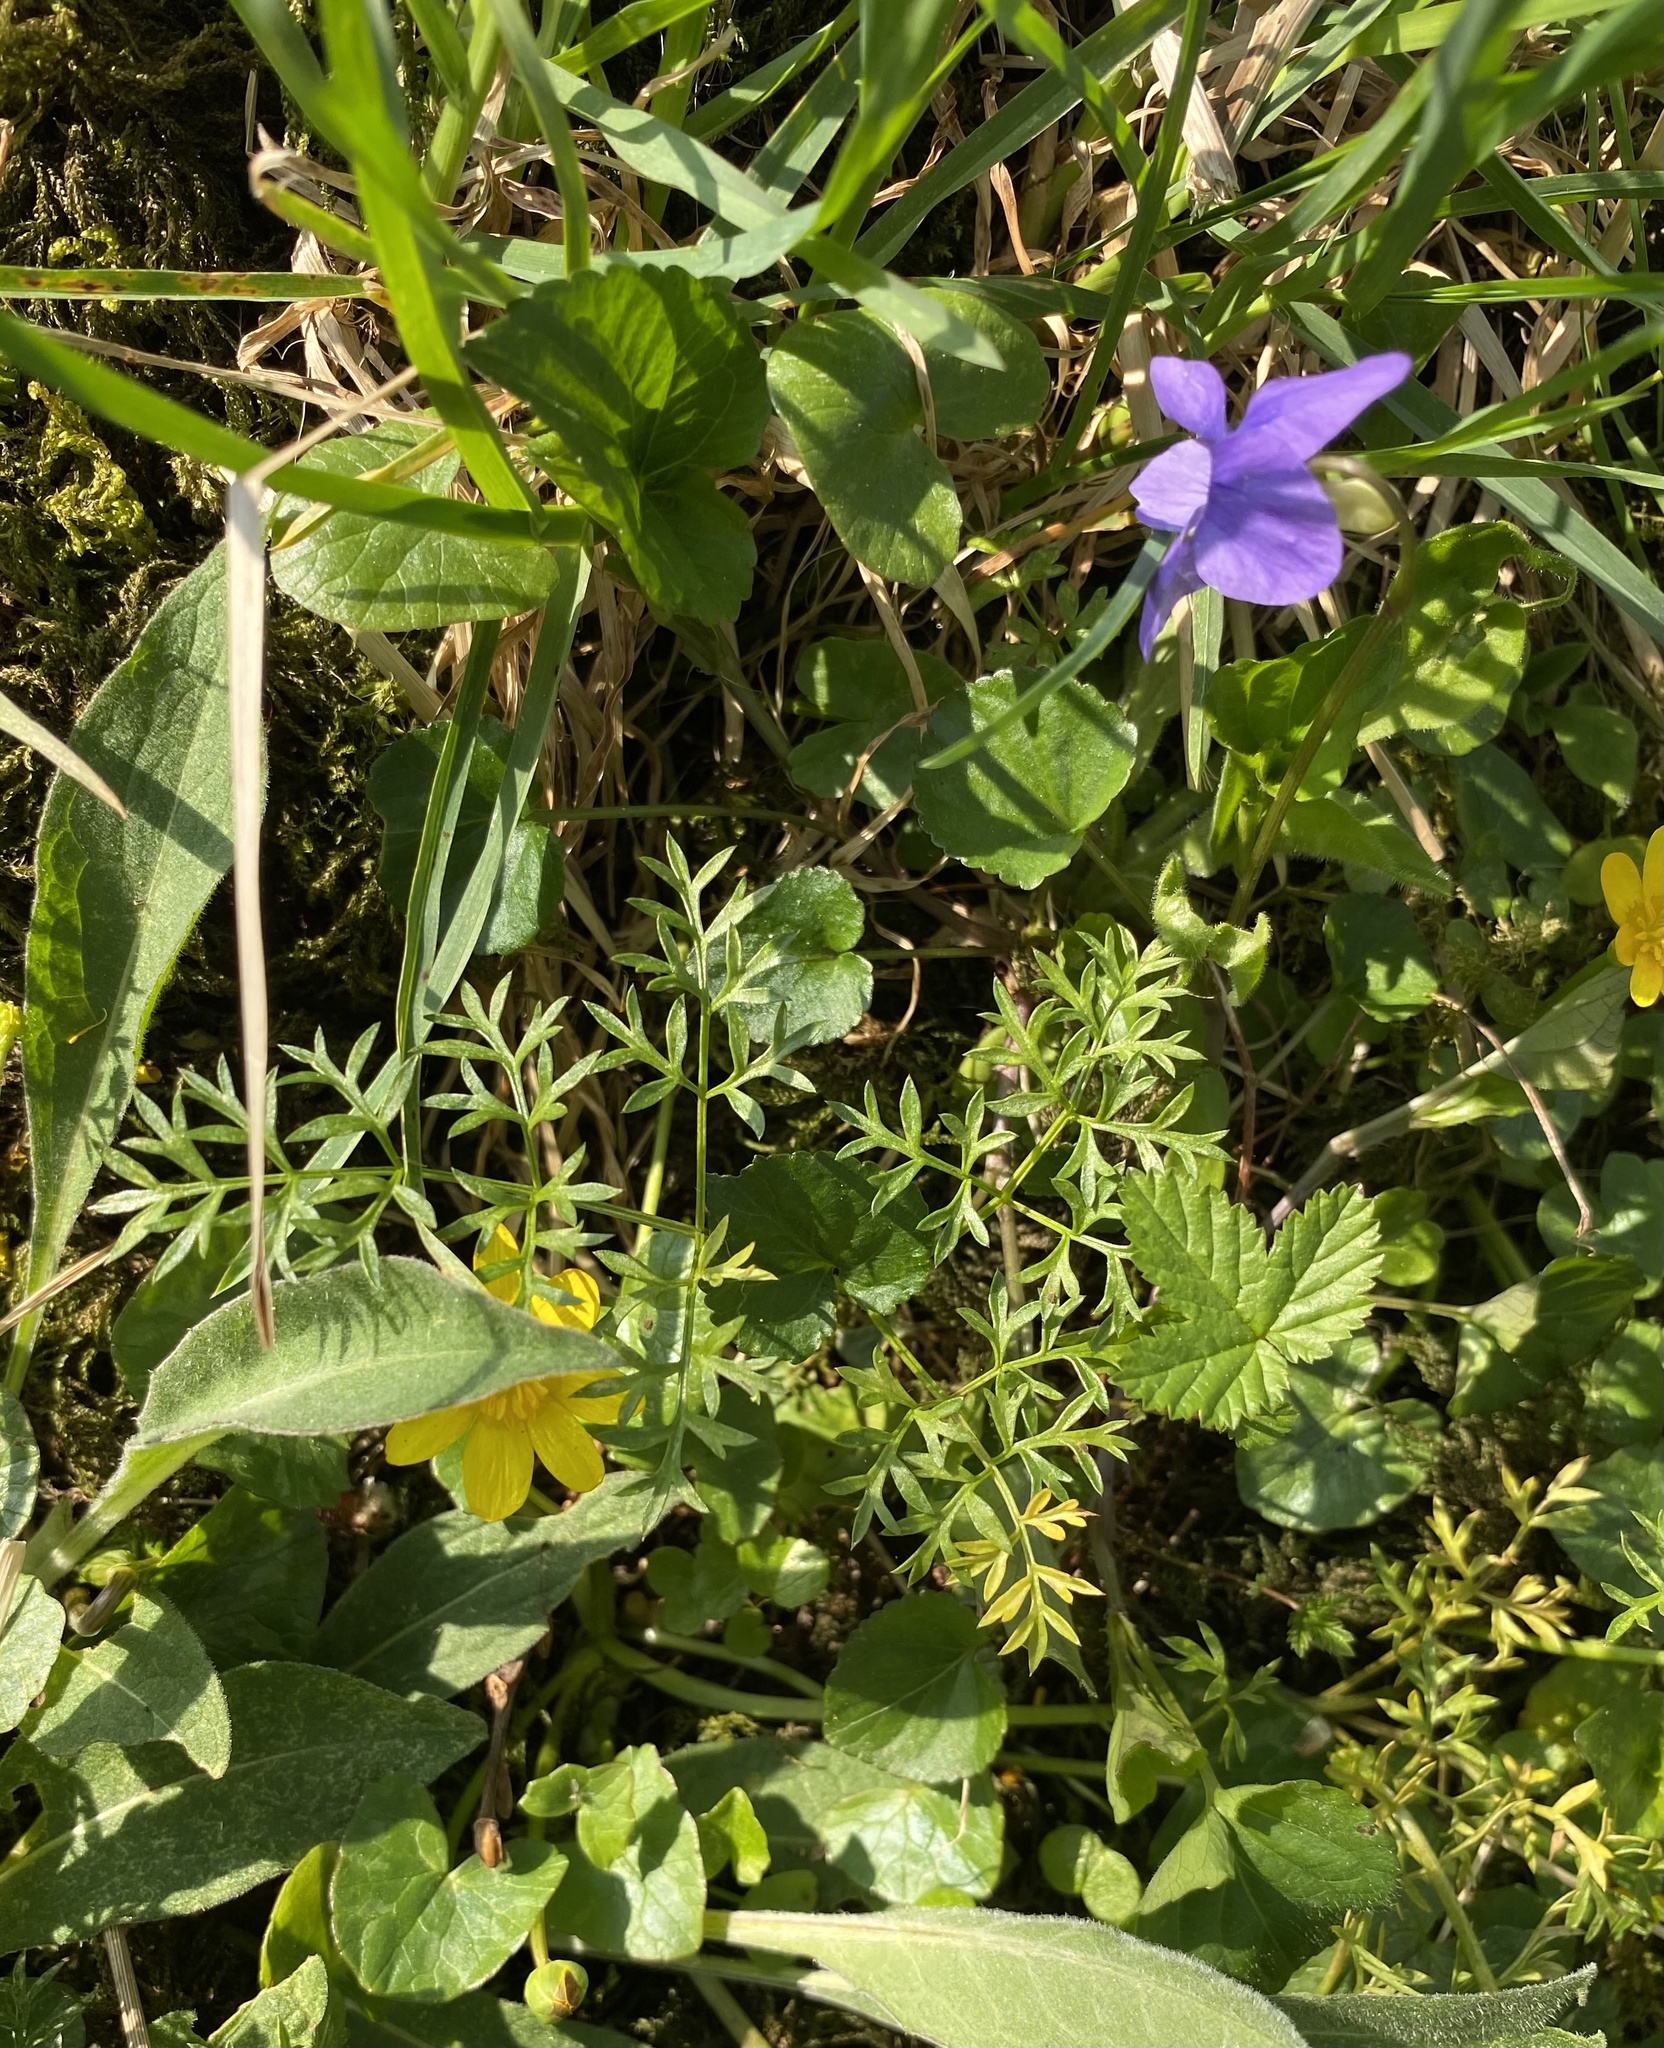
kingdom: Plantae
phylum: Tracheophyta
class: Magnoliopsida
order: Apiales
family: Apiaceae
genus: Conopodium
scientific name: Conopodium majus
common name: Pignut
